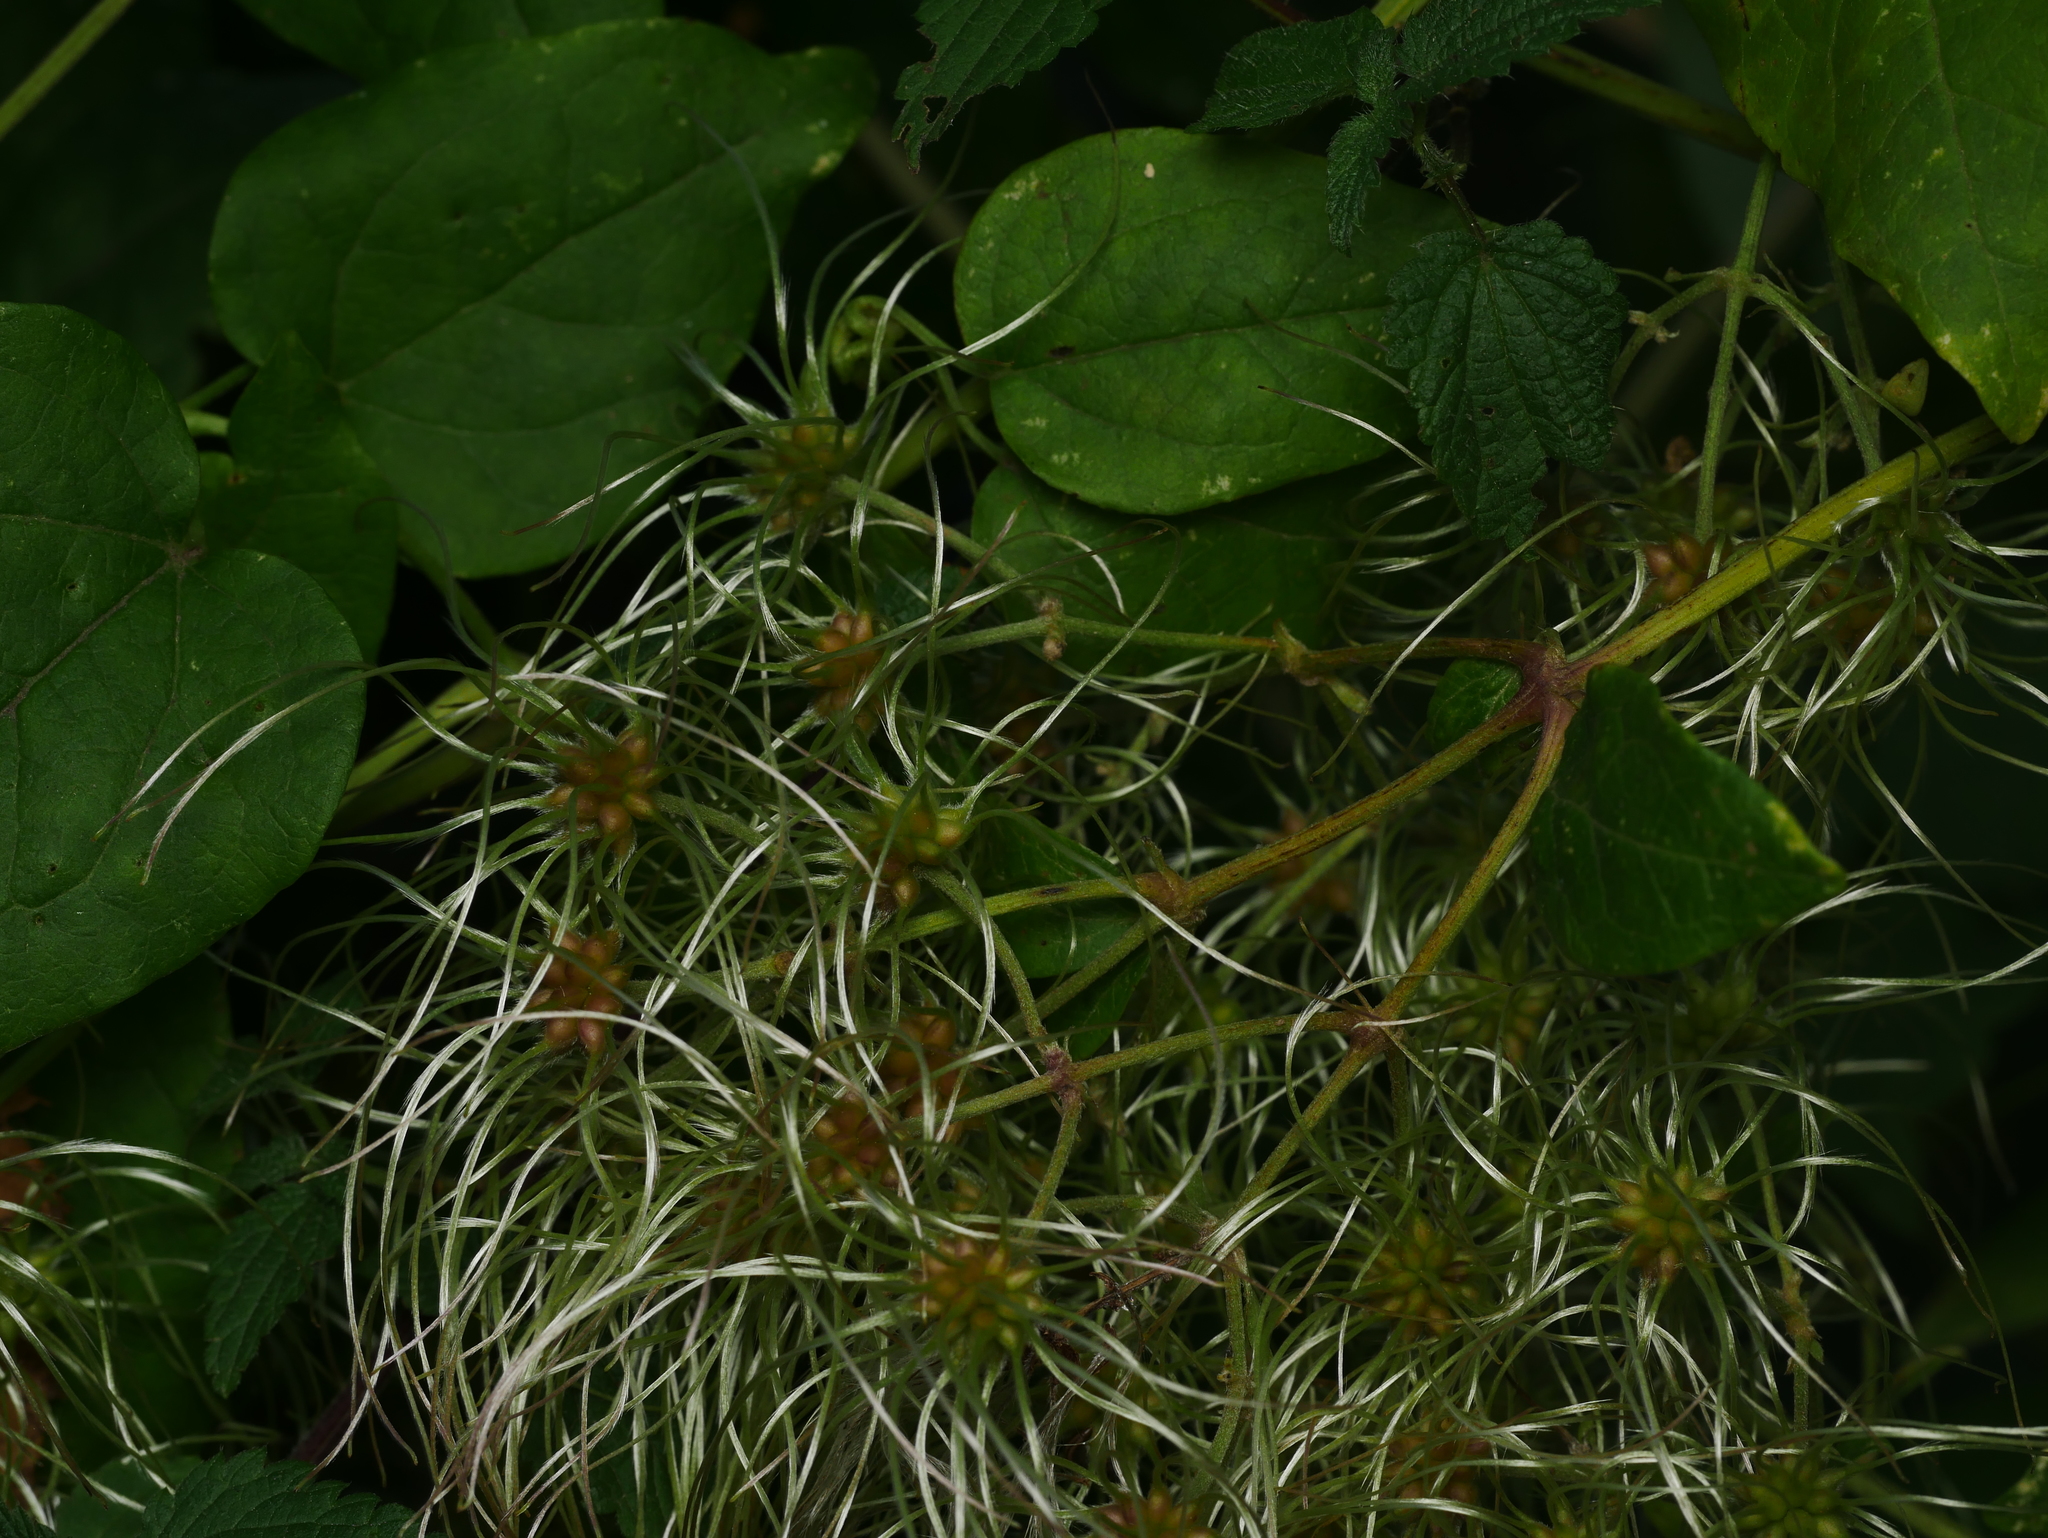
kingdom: Plantae
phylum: Tracheophyta
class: Magnoliopsida
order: Ranunculales
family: Ranunculaceae
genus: Clematis
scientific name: Clematis vitalba
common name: Evergreen clematis
